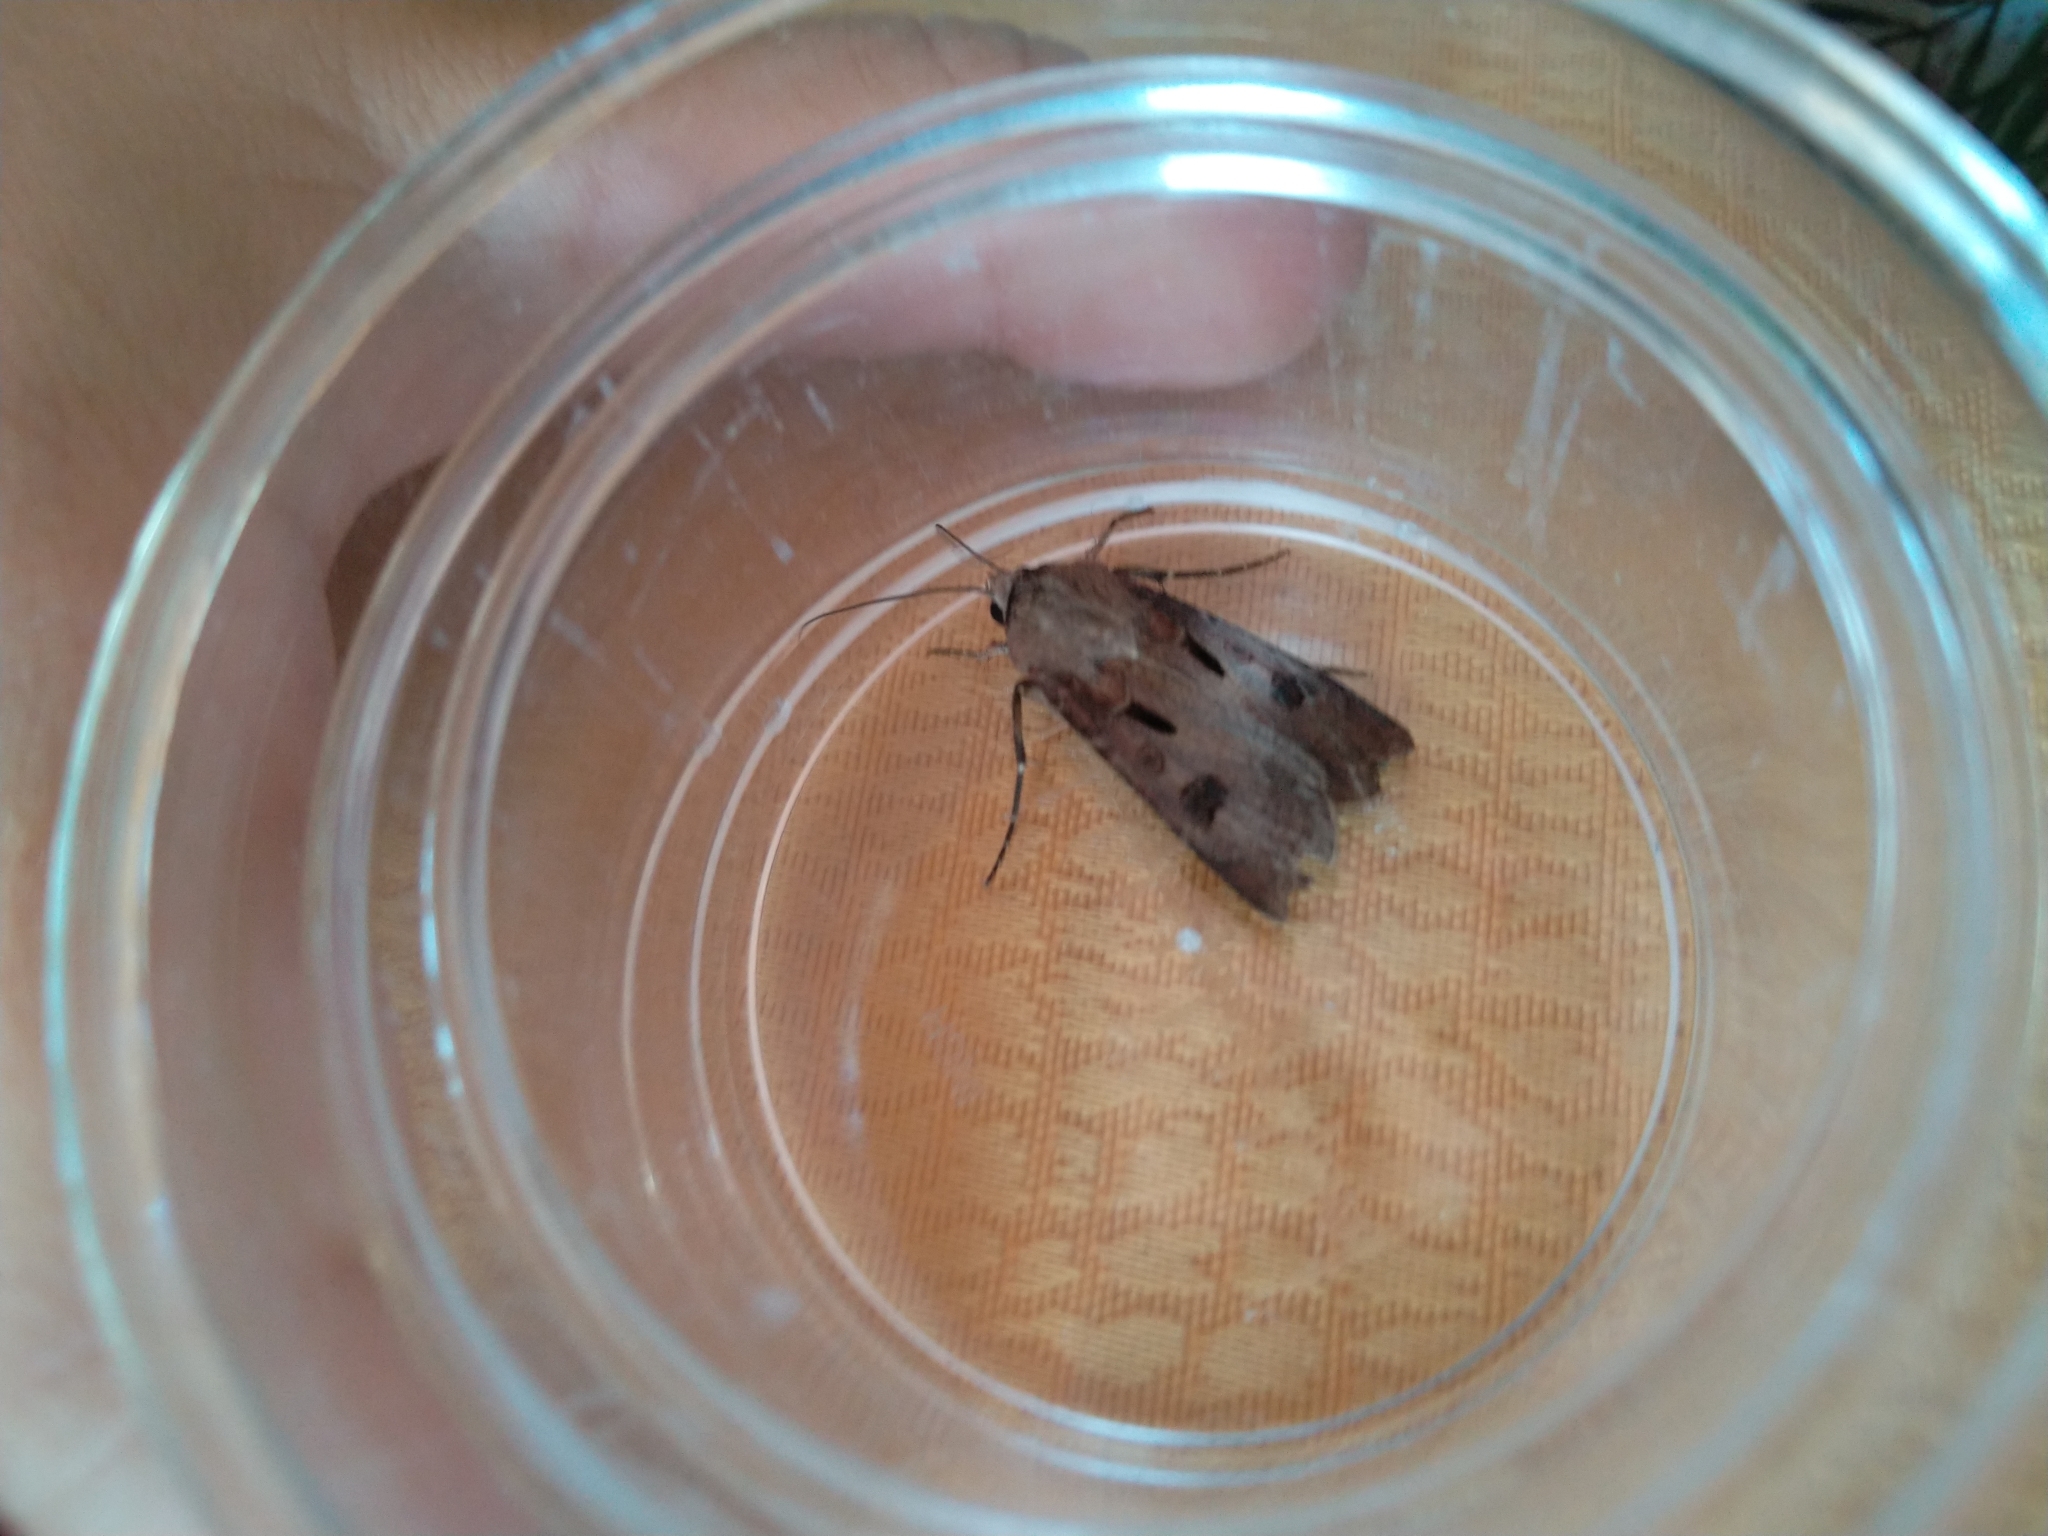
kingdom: Animalia
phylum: Arthropoda
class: Insecta
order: Lepidoptera
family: Noctuidae
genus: Agrotis
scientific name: Agrotis exclamationis
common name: Heart and dart
